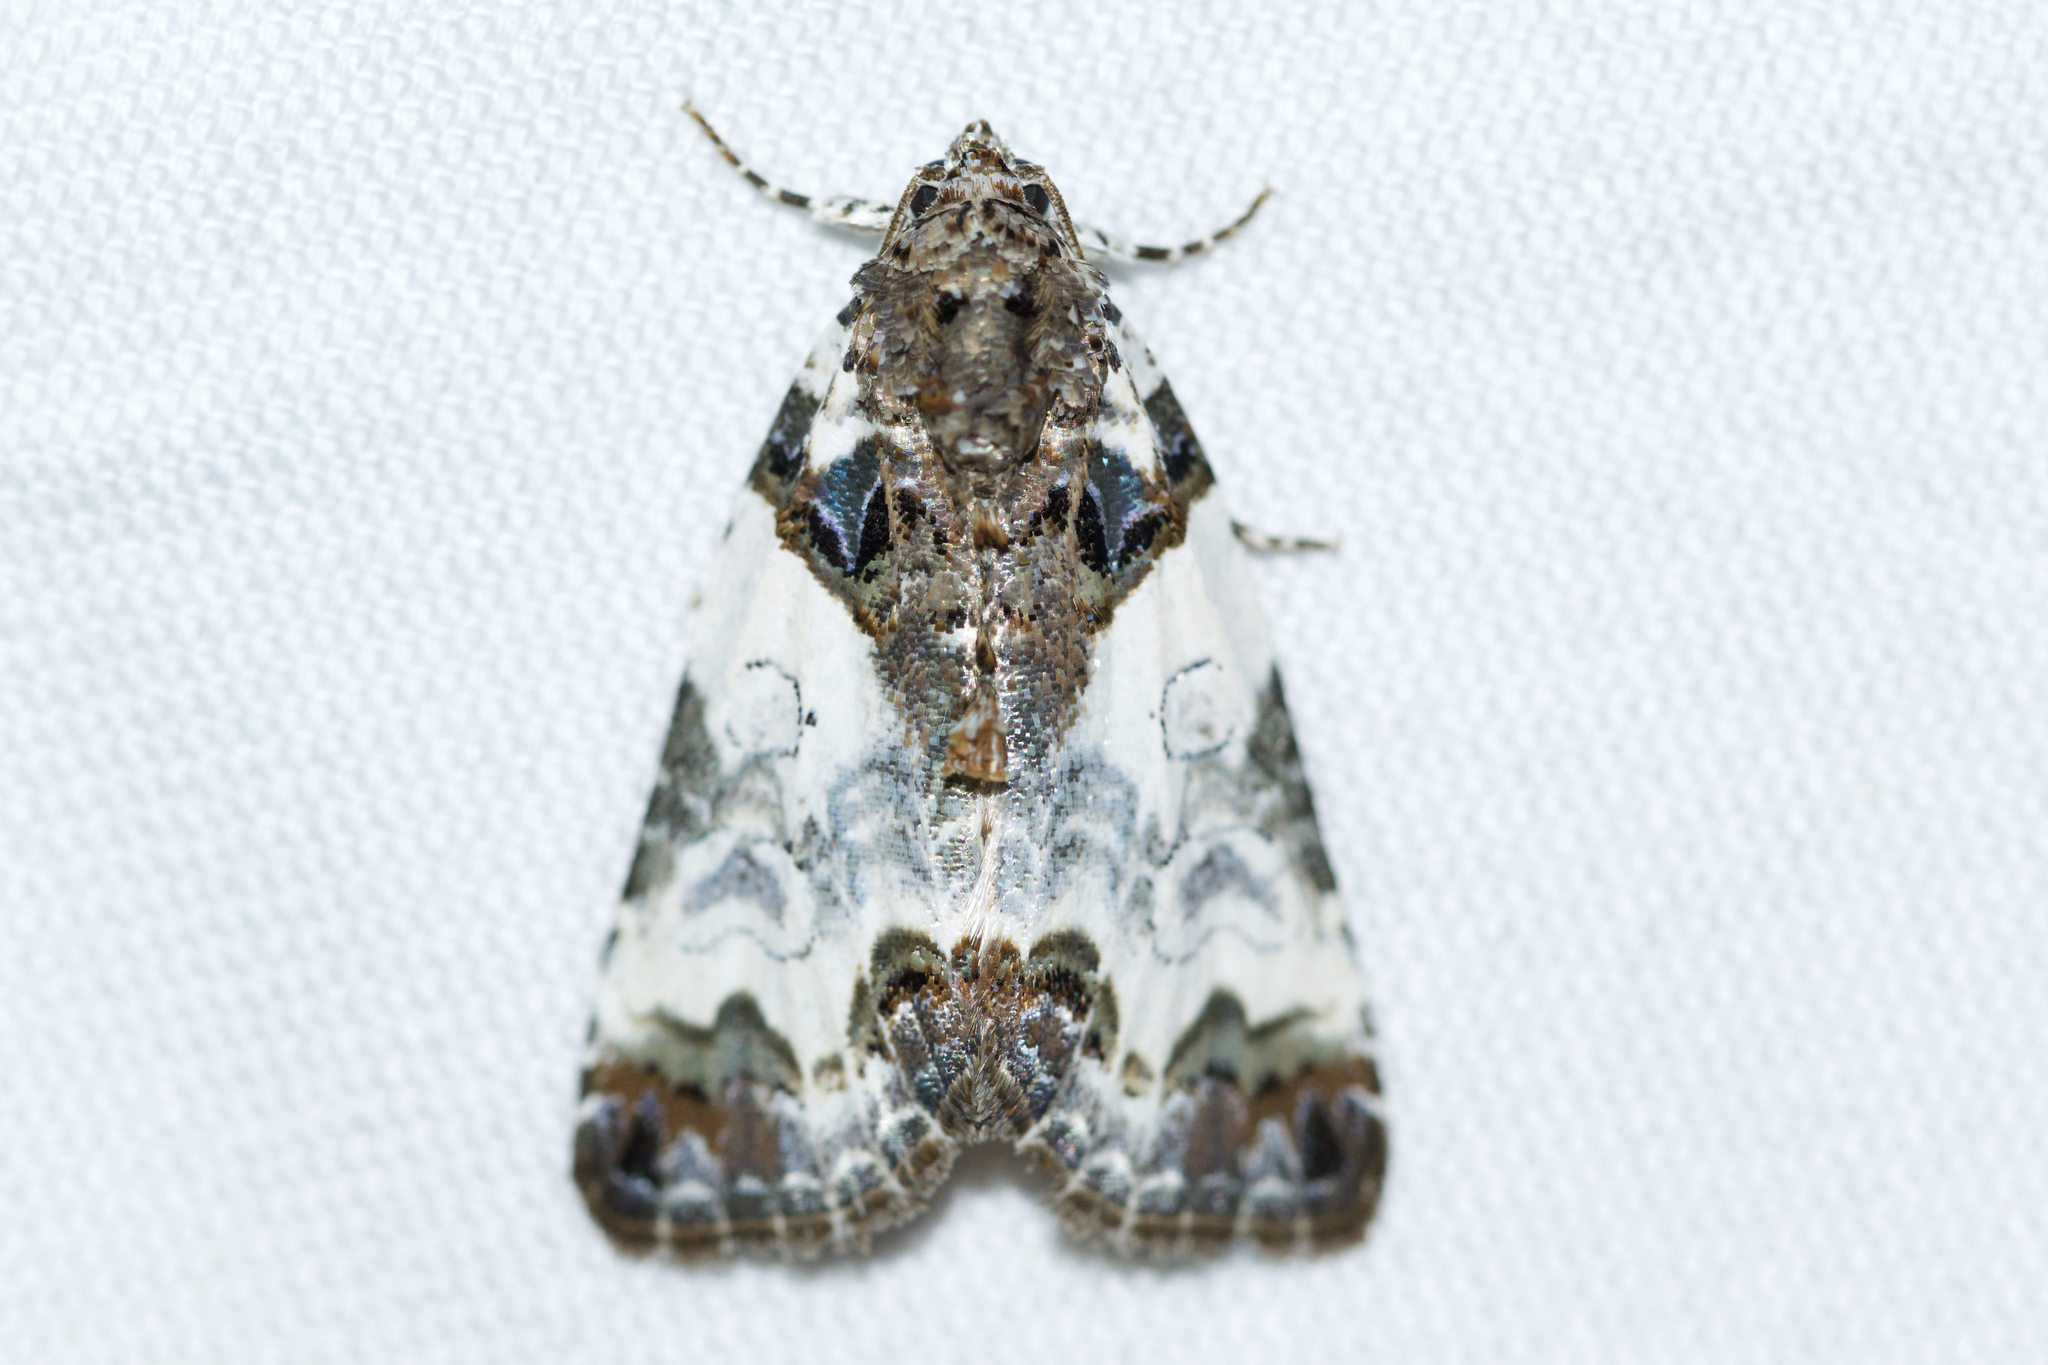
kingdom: Animalia
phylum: Arthropoda
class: Insecta
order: Lepidoptera
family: Noctuidae
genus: Cerma
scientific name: Cerma cerintha
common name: Tufted bird-dropping moth
